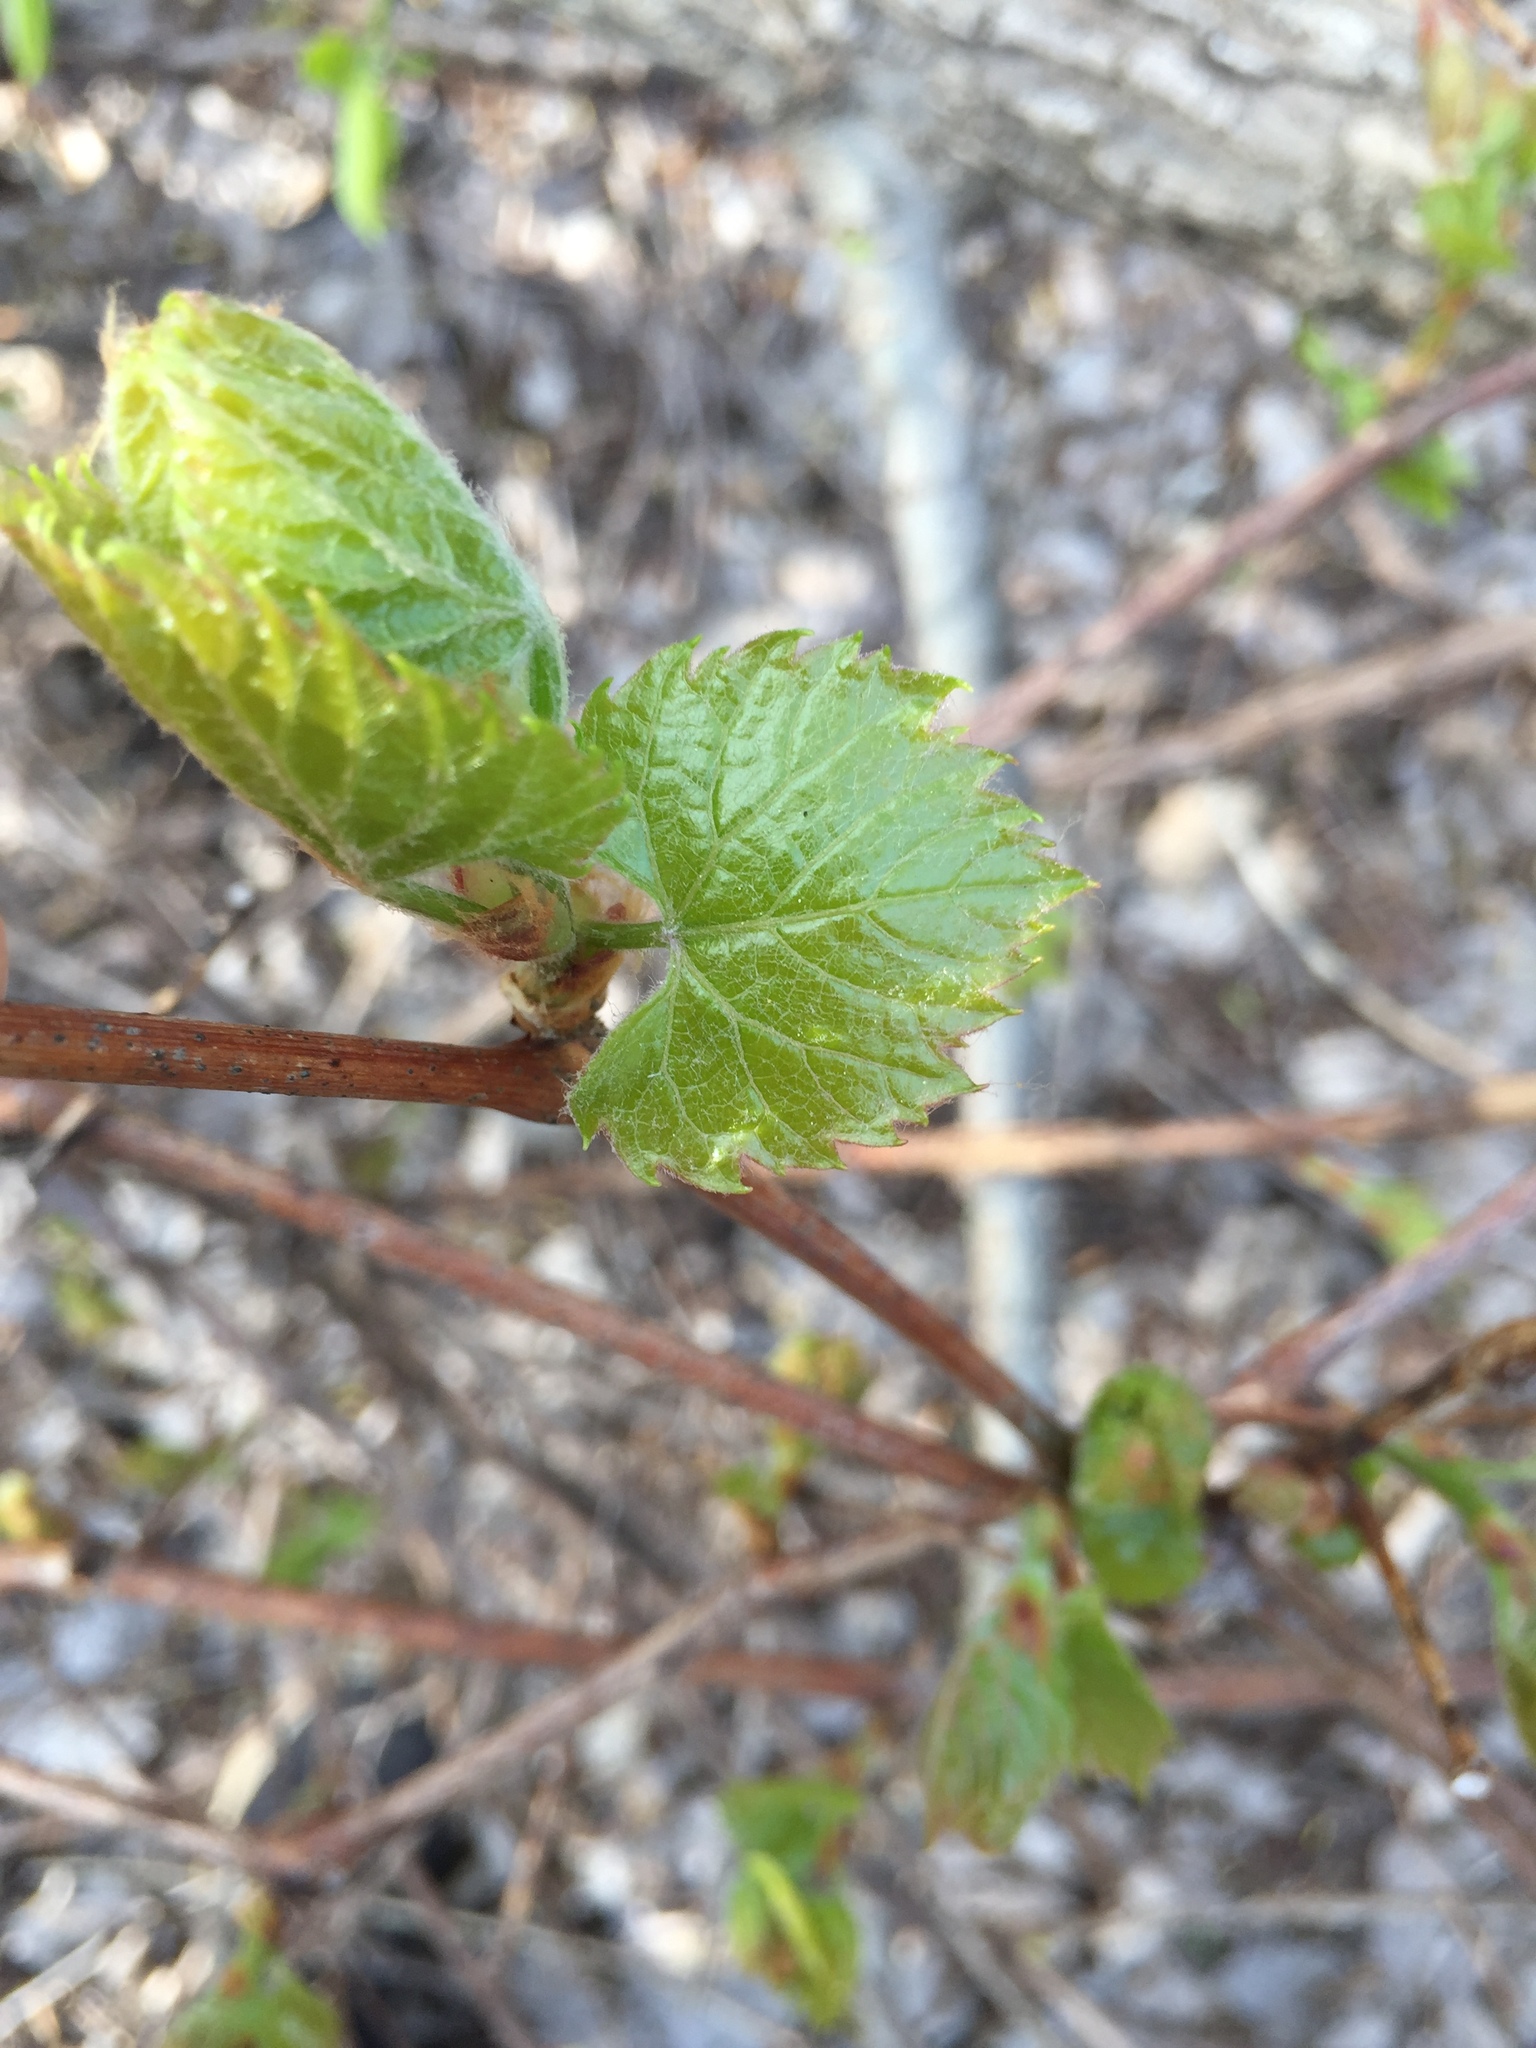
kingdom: Plantae
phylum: Tracheophyta
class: Magnoliopsida
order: Vitales
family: Vitaceae
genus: Vitis
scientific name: Vitis riparia
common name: Frost grape
